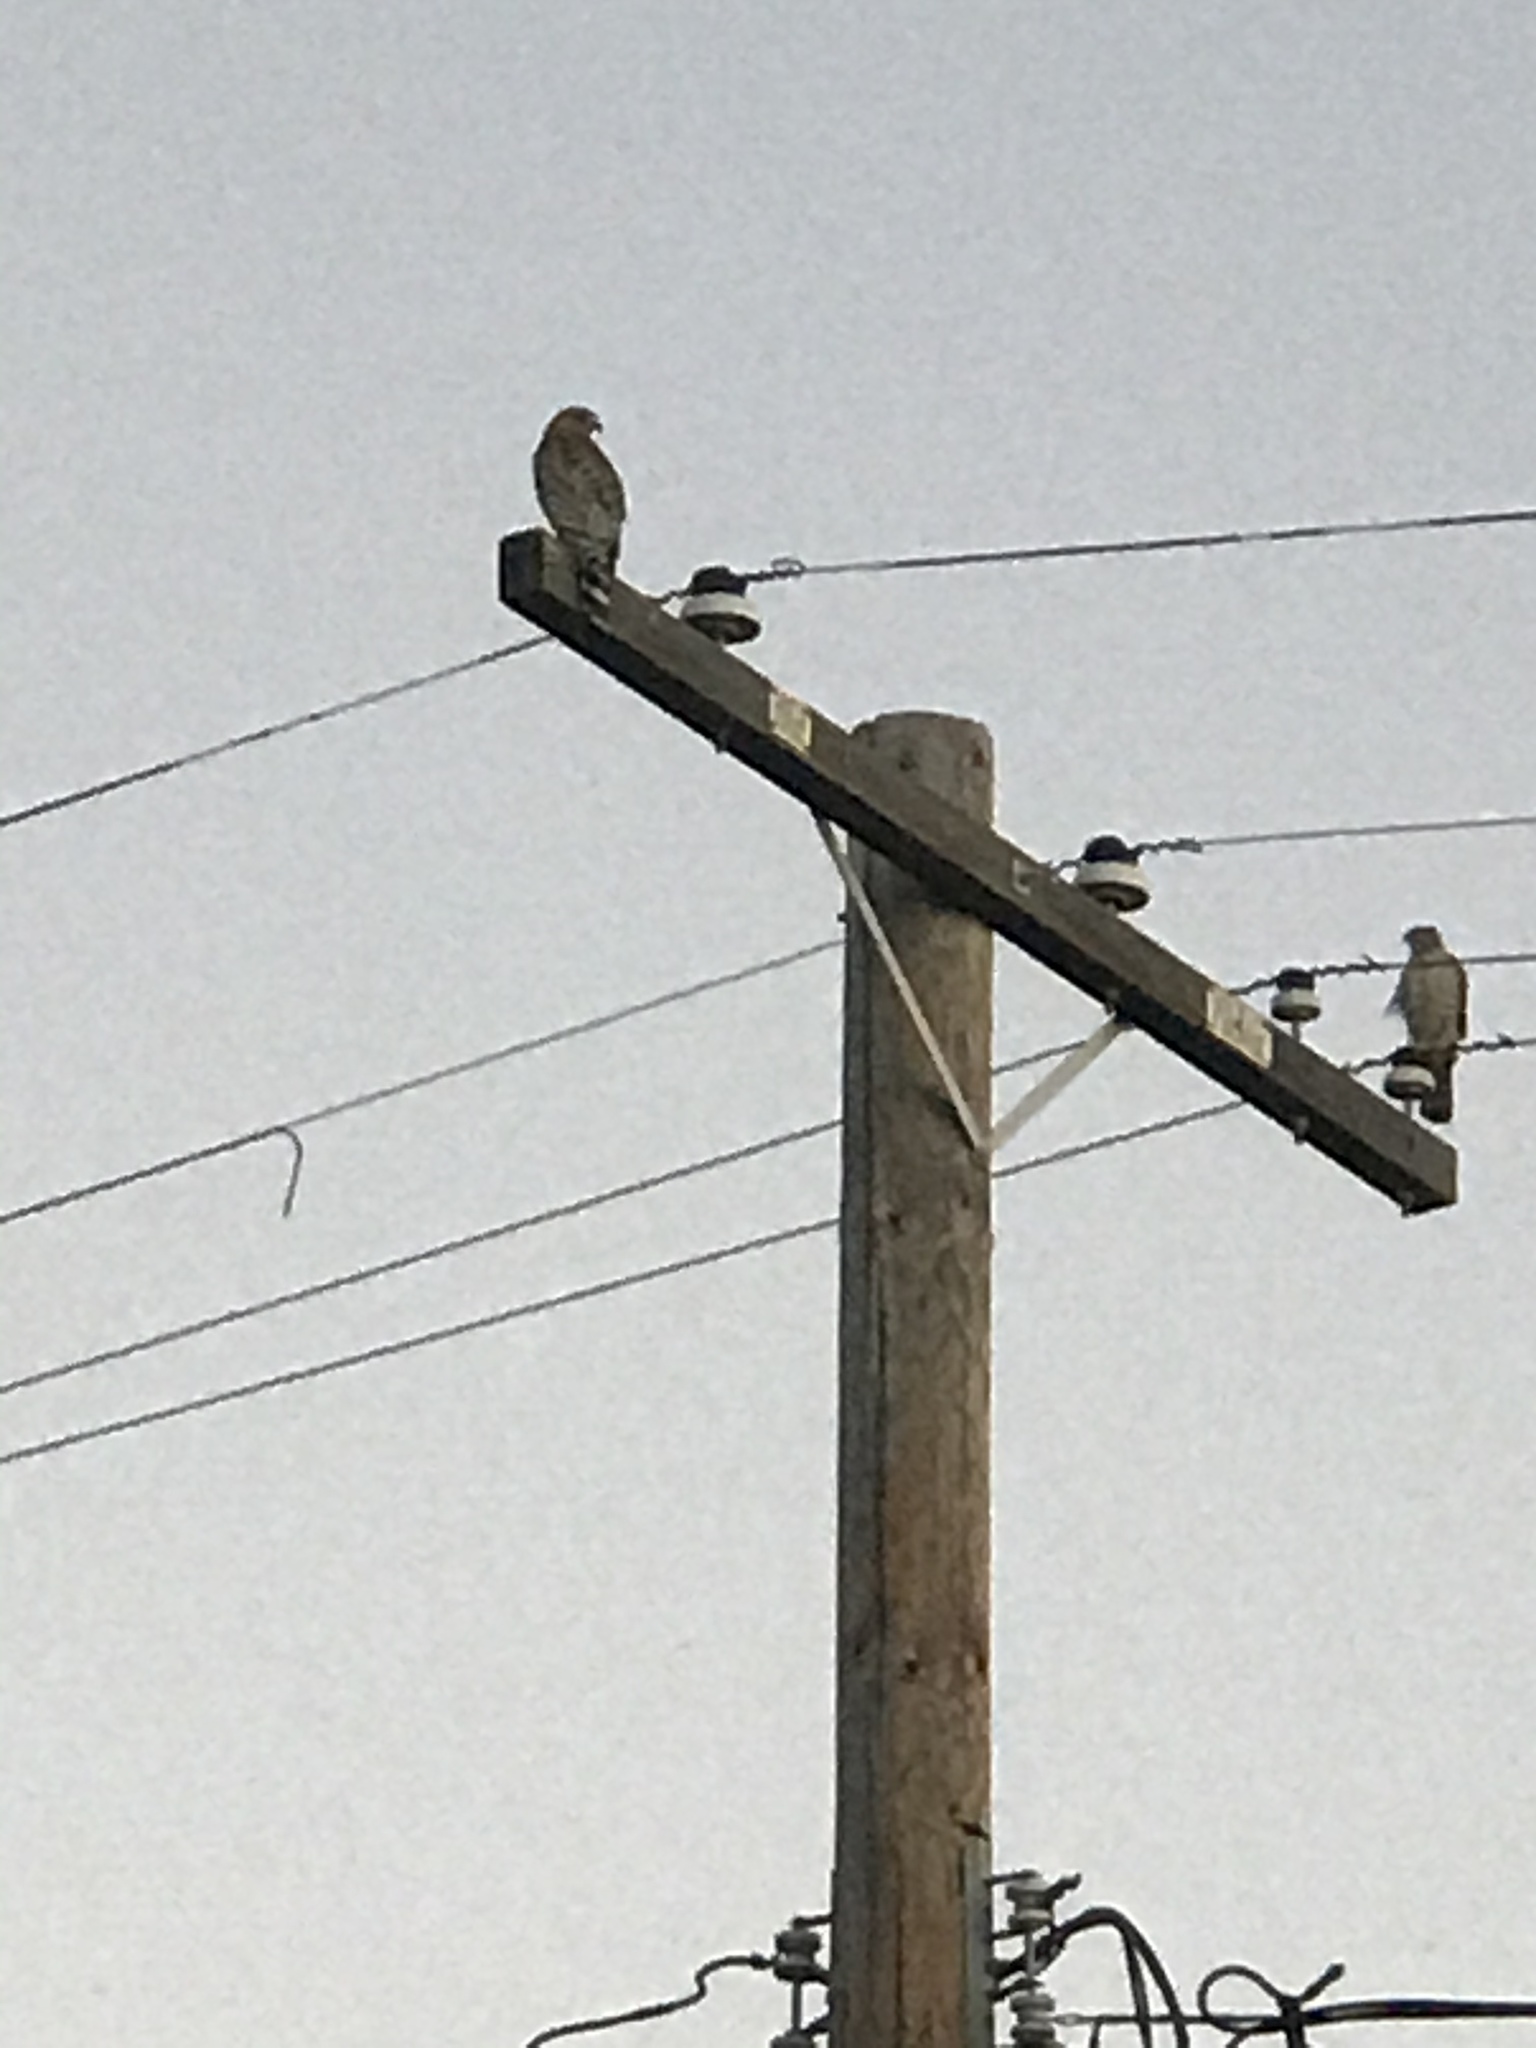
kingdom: Animalia
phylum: Chordata
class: Aves
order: Accipitriformes
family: Accipitridae
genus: Accipiter
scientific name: Accipiter cooperii
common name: Cooper's hawk
